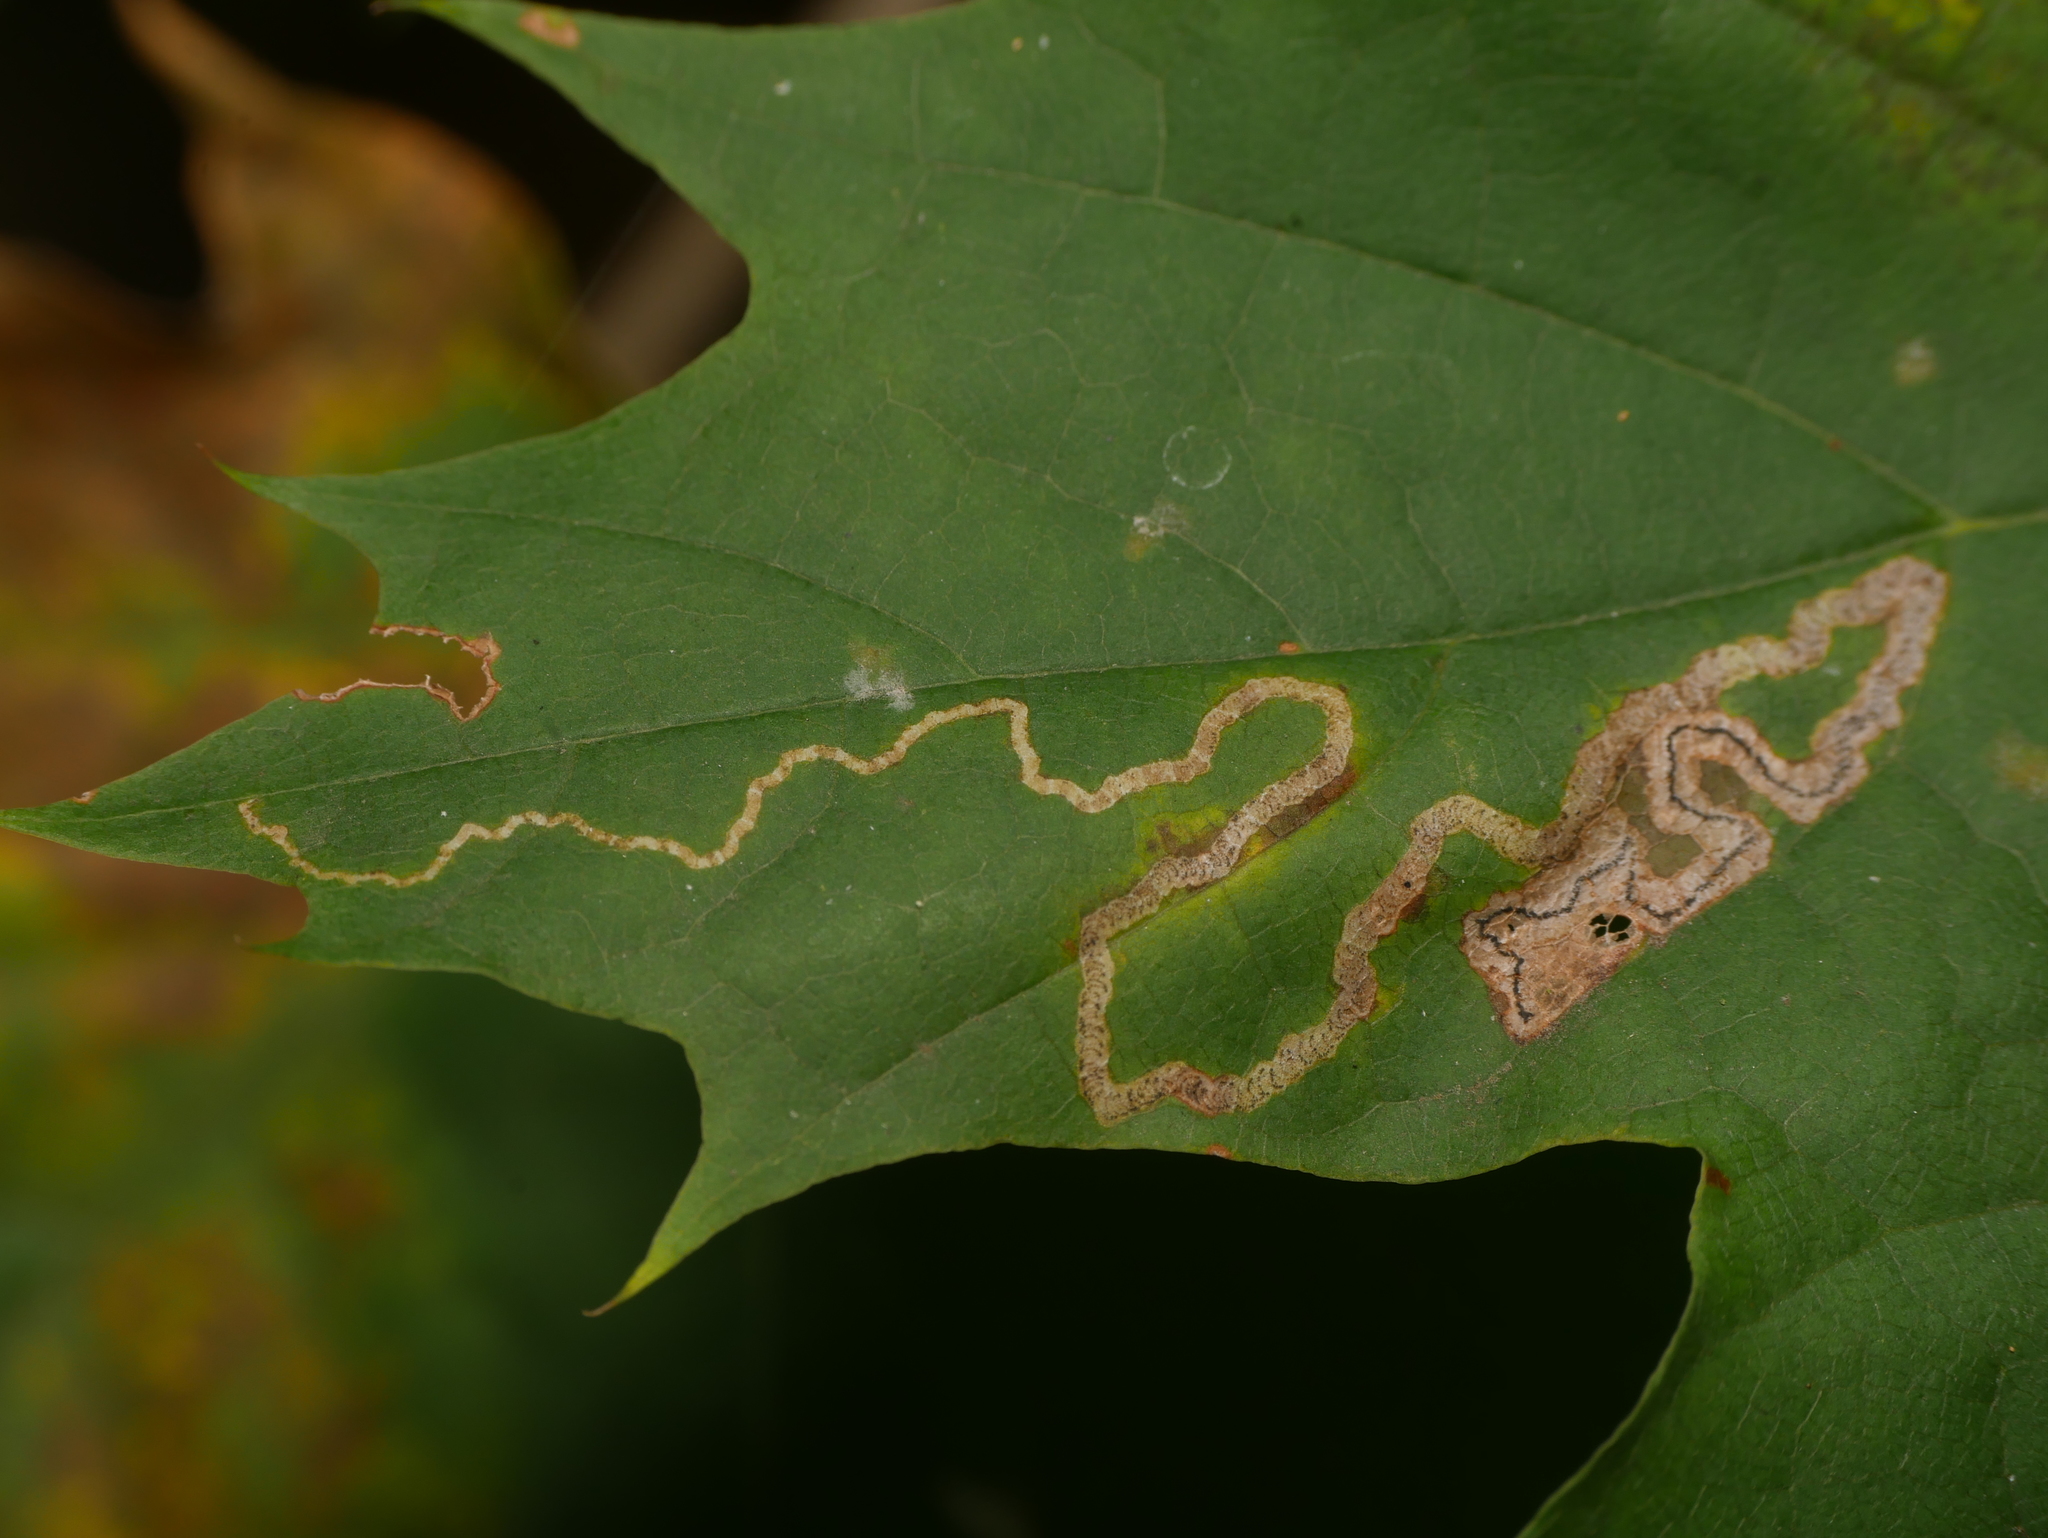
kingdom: Animalia
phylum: Arthropoda
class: Insecta
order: Lepidoptera
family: Nepticulidae
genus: Stigmella
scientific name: Stigmella aceris
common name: Scarce maple pigmy
